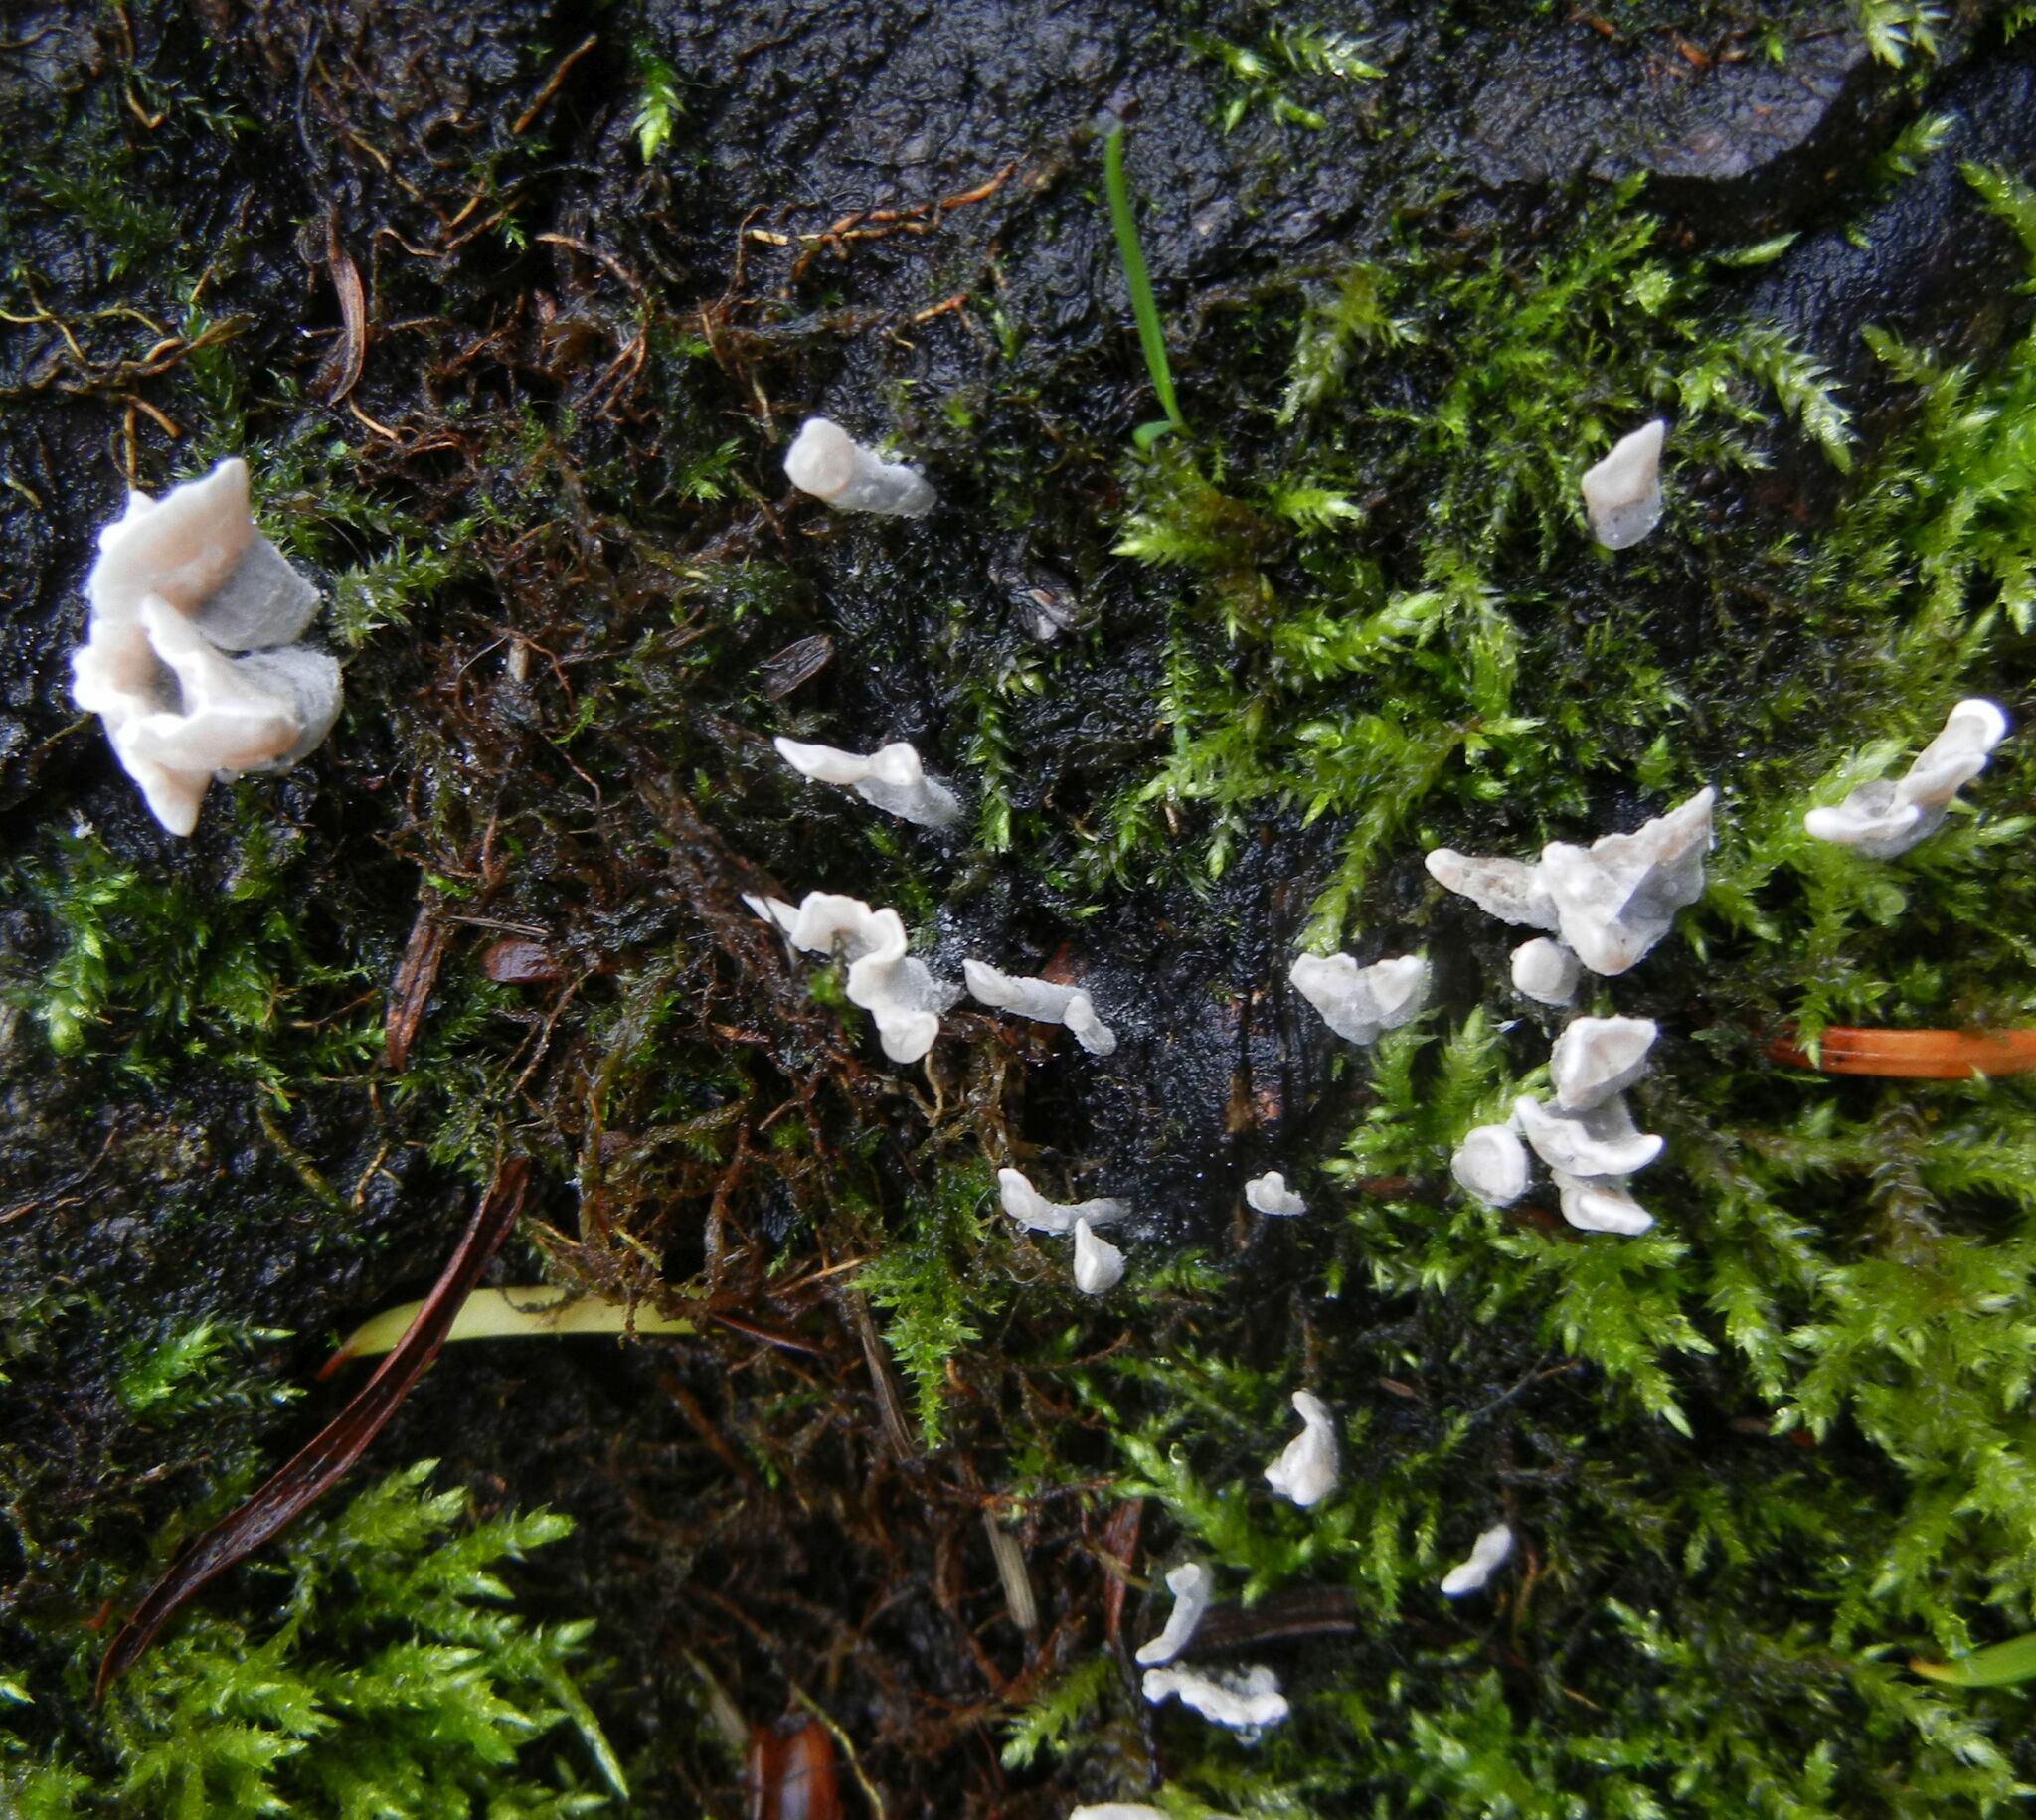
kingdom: Fungi
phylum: Ascomycota
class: Sordariomycetes
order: Xylariales
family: Xylariaceae
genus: Xylaria
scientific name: Xylaria hypoxylon
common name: Candle-snuff fungus
